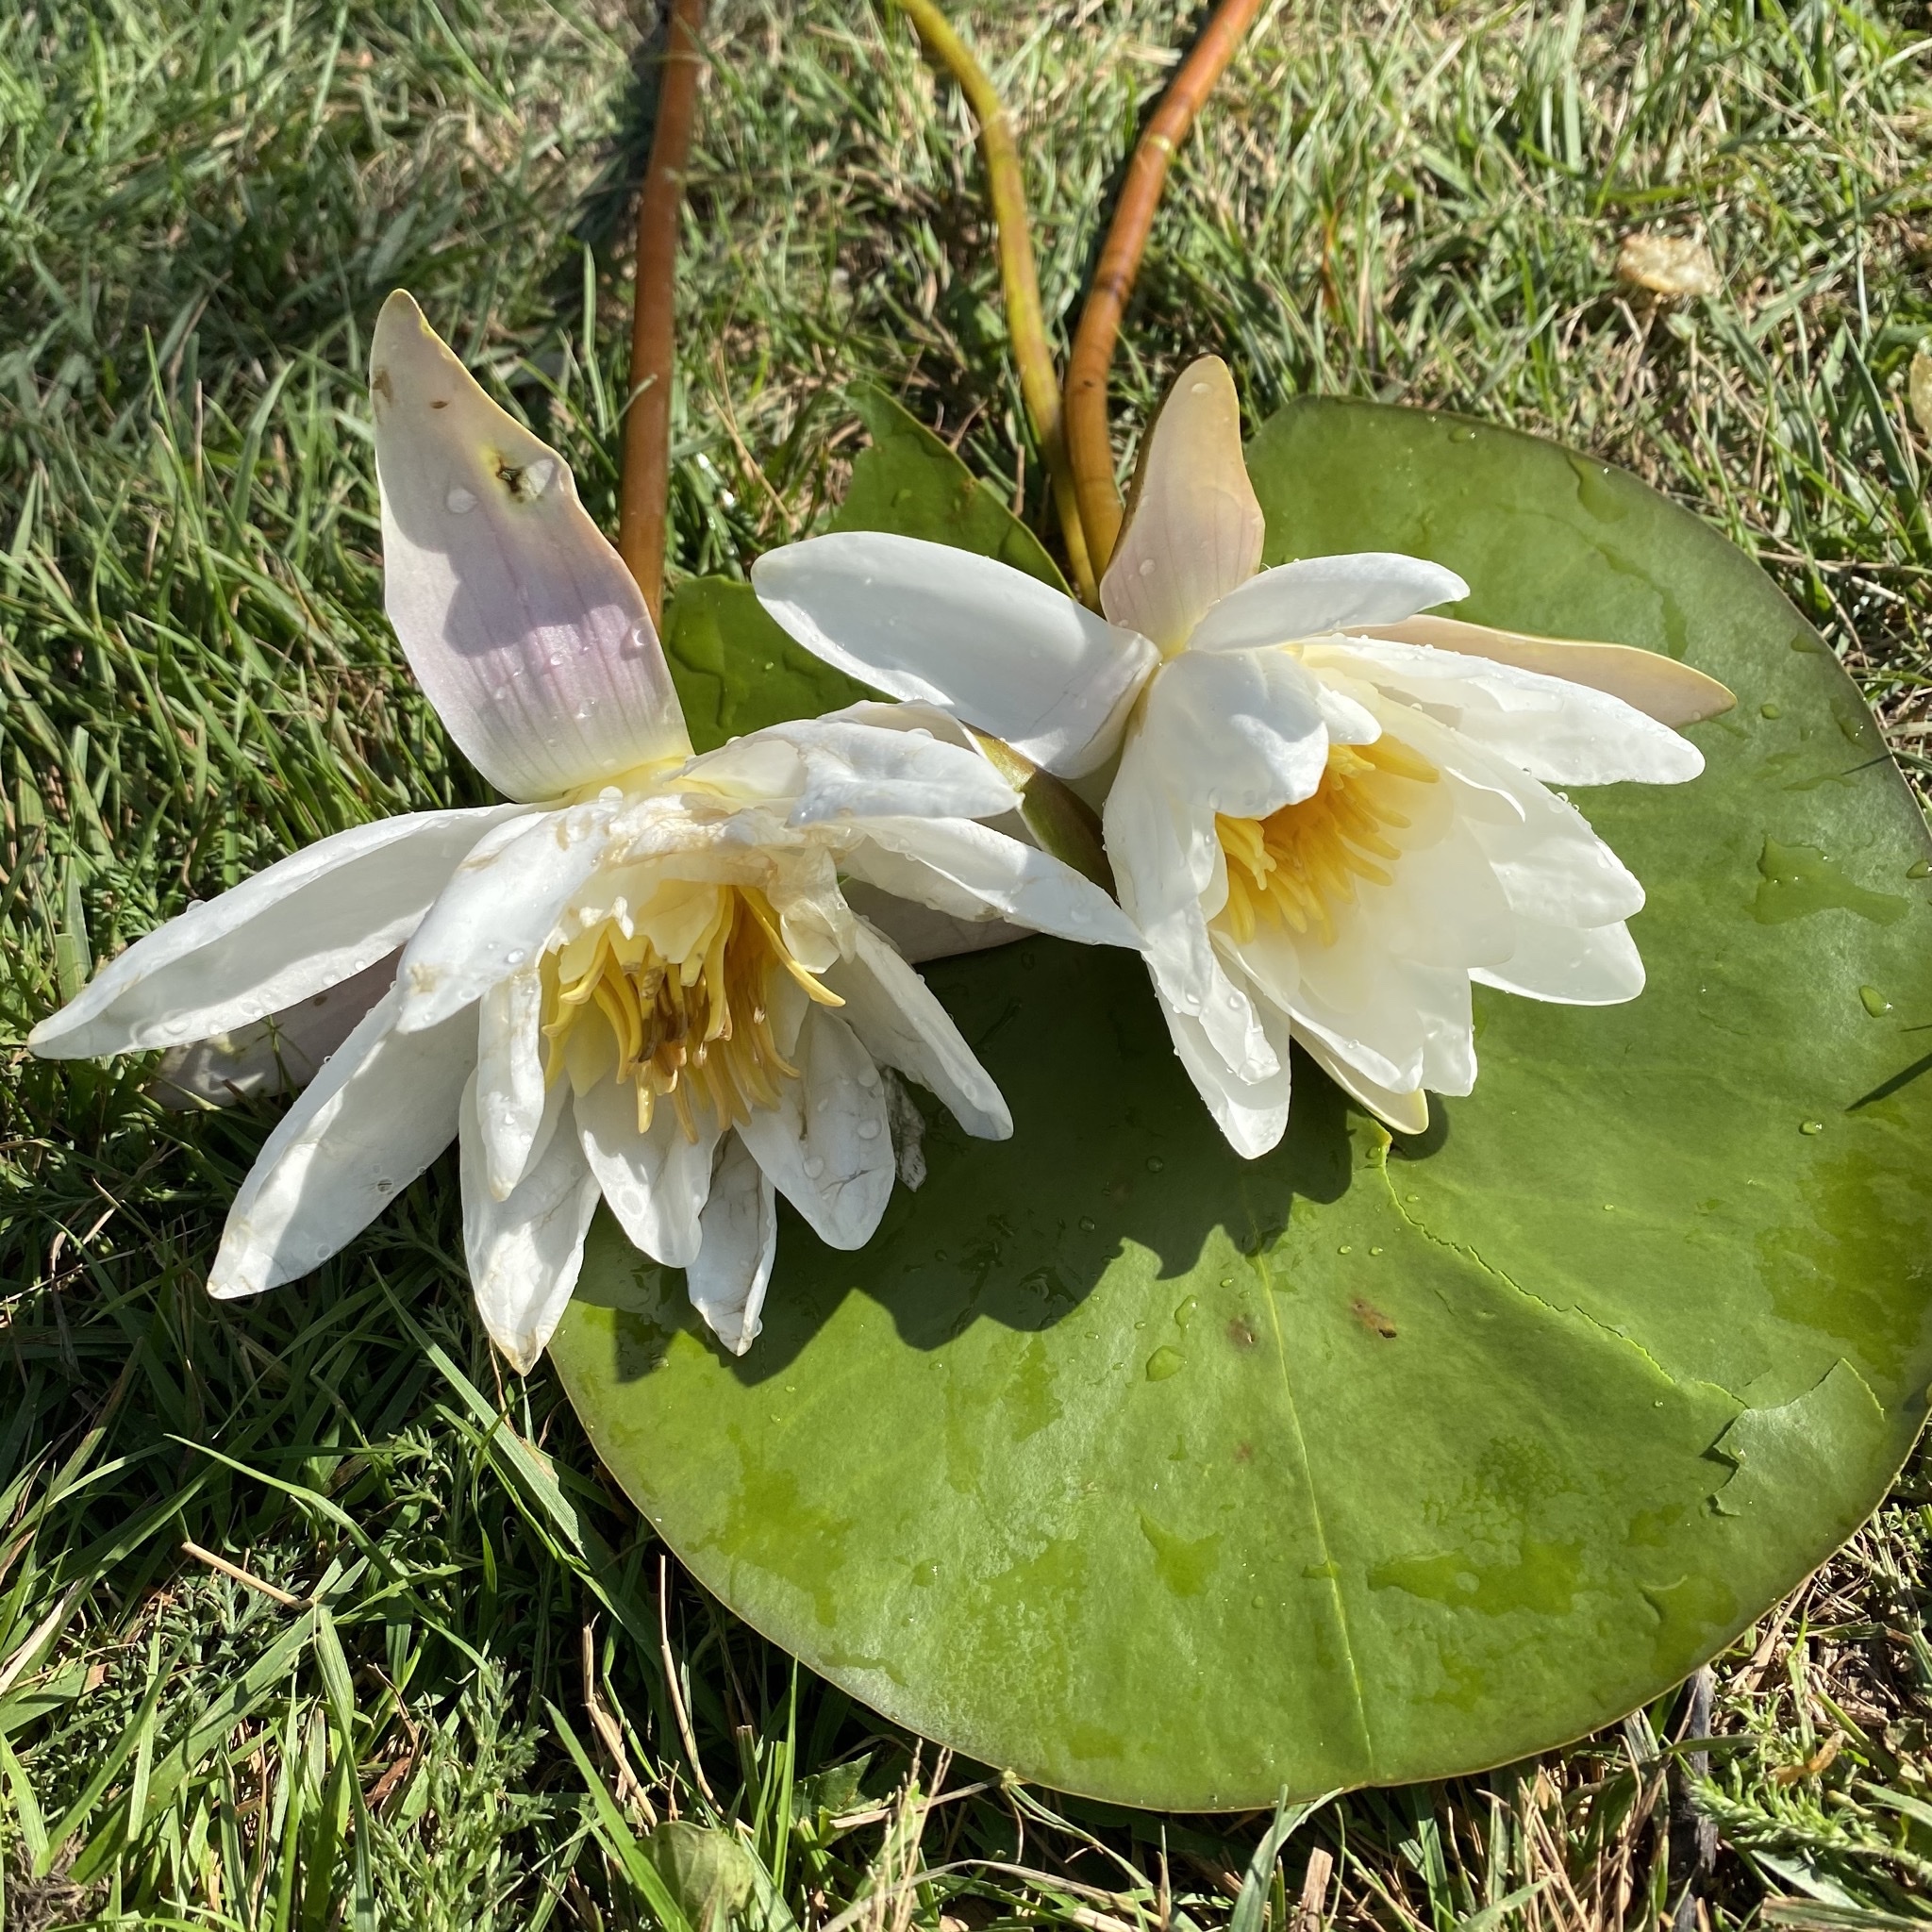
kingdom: Plantae
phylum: Tracheophyta
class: Magnoliopsida
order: Nymphaeales
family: Nymphaeaceae
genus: Nymphaea
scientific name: Nymphaea alba
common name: White water-lily
